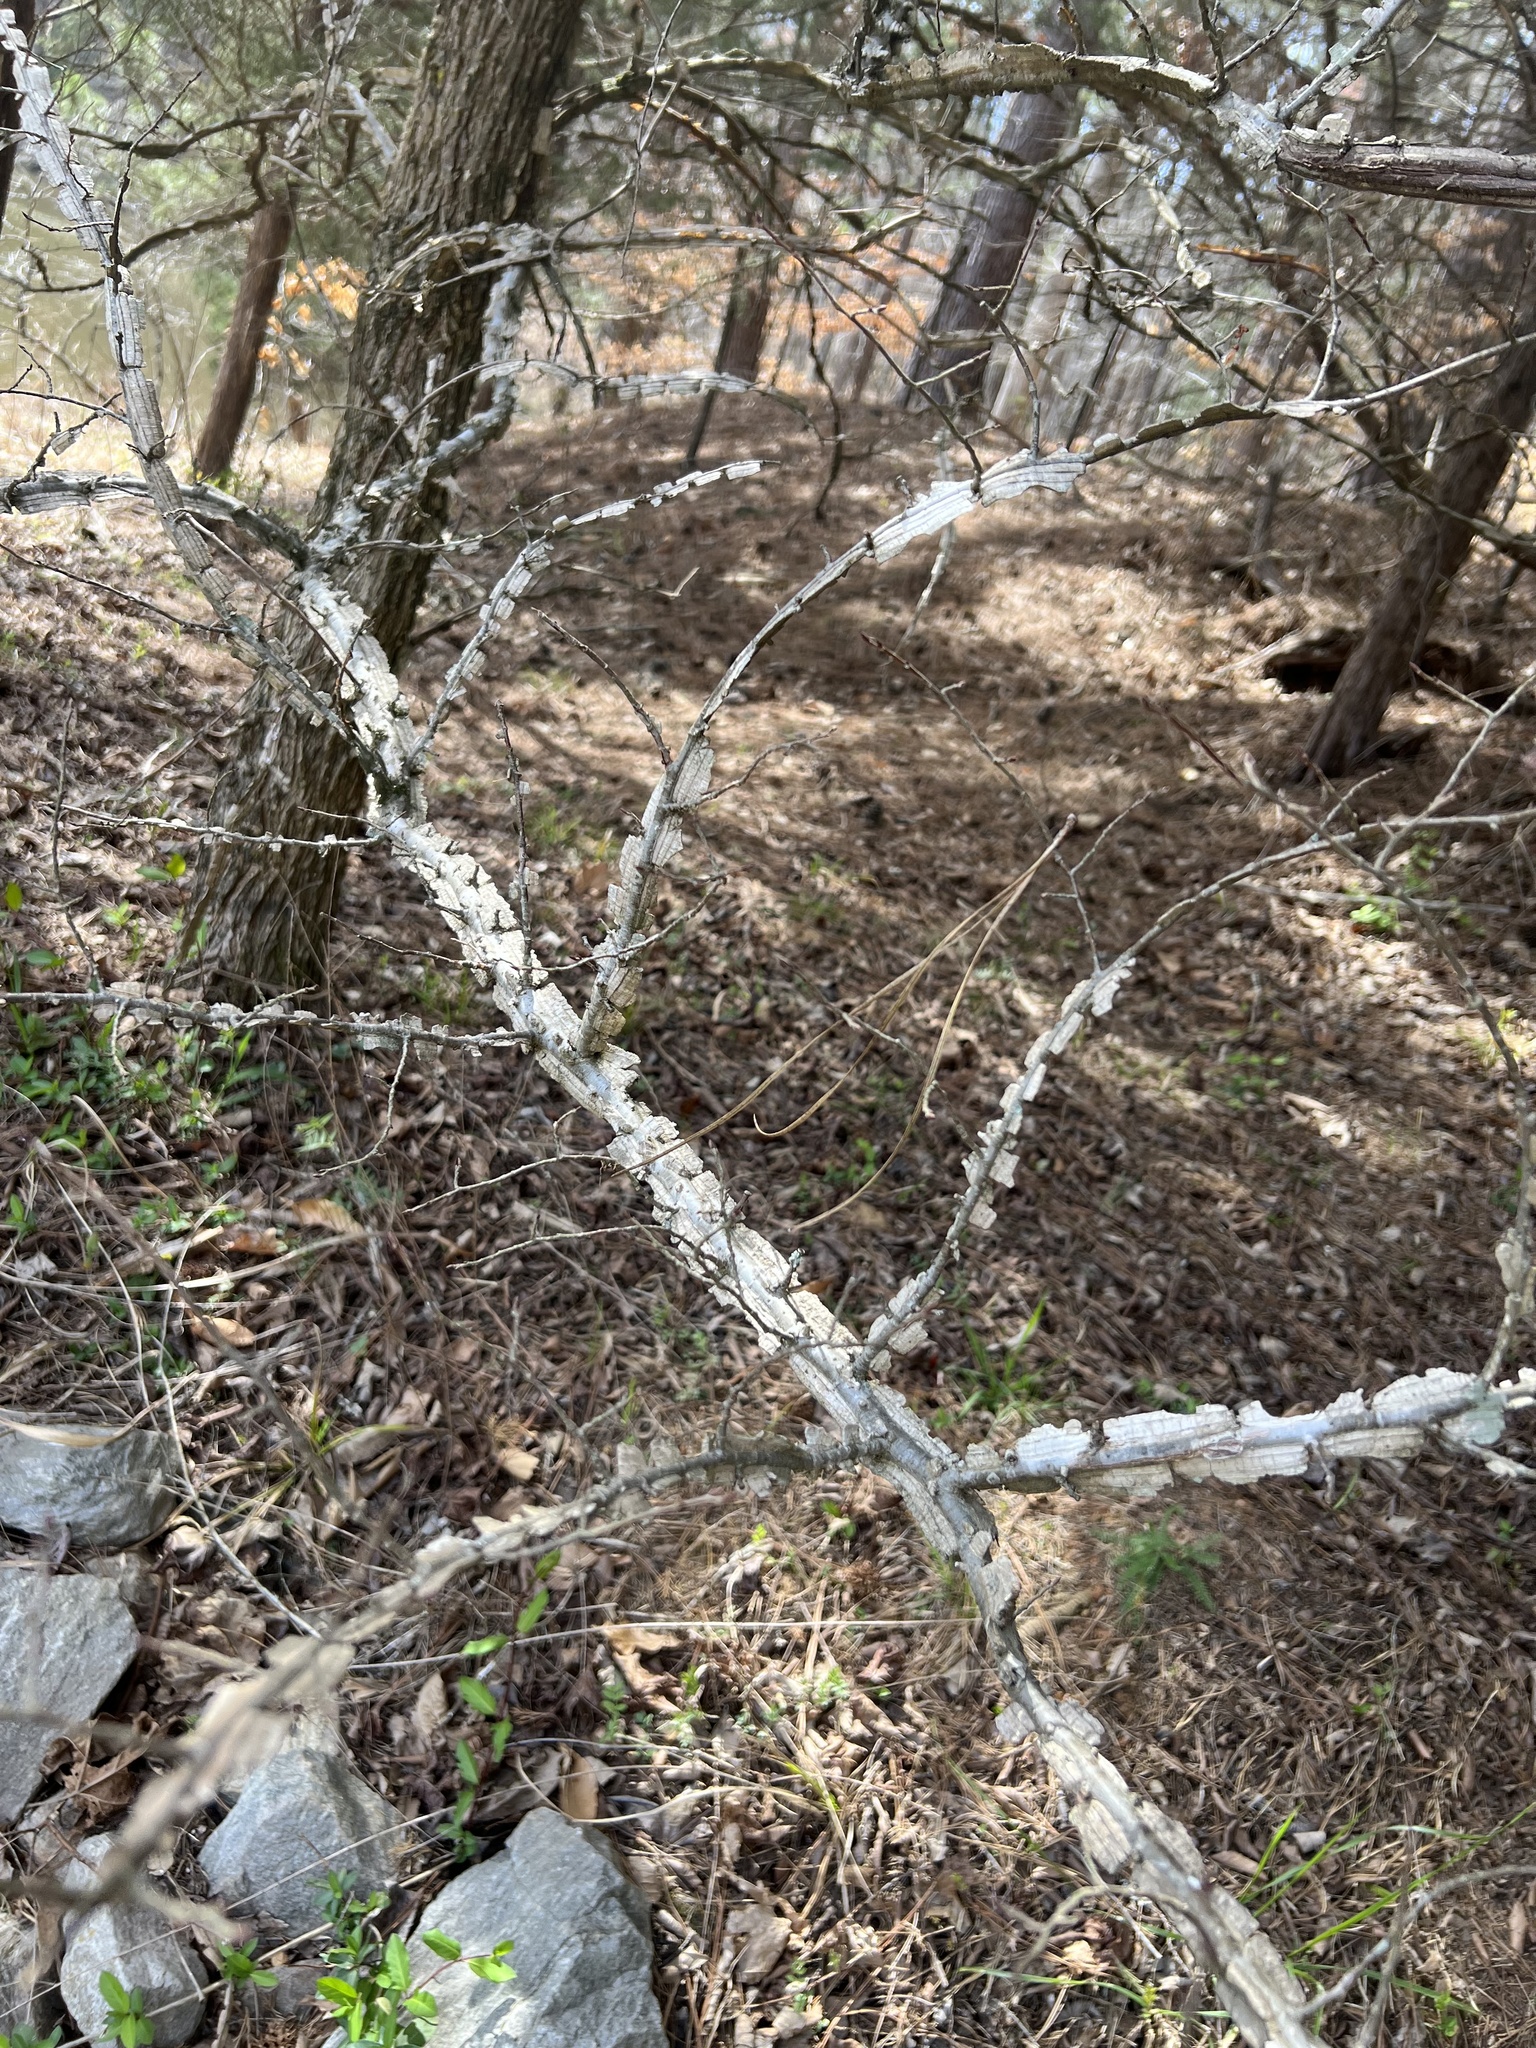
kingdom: Plantae
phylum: Tracheophyta
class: Magnoliopsida
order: Rosales
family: Ulmaceae
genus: Ulmus
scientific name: Ulmus alata
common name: Winged elm
